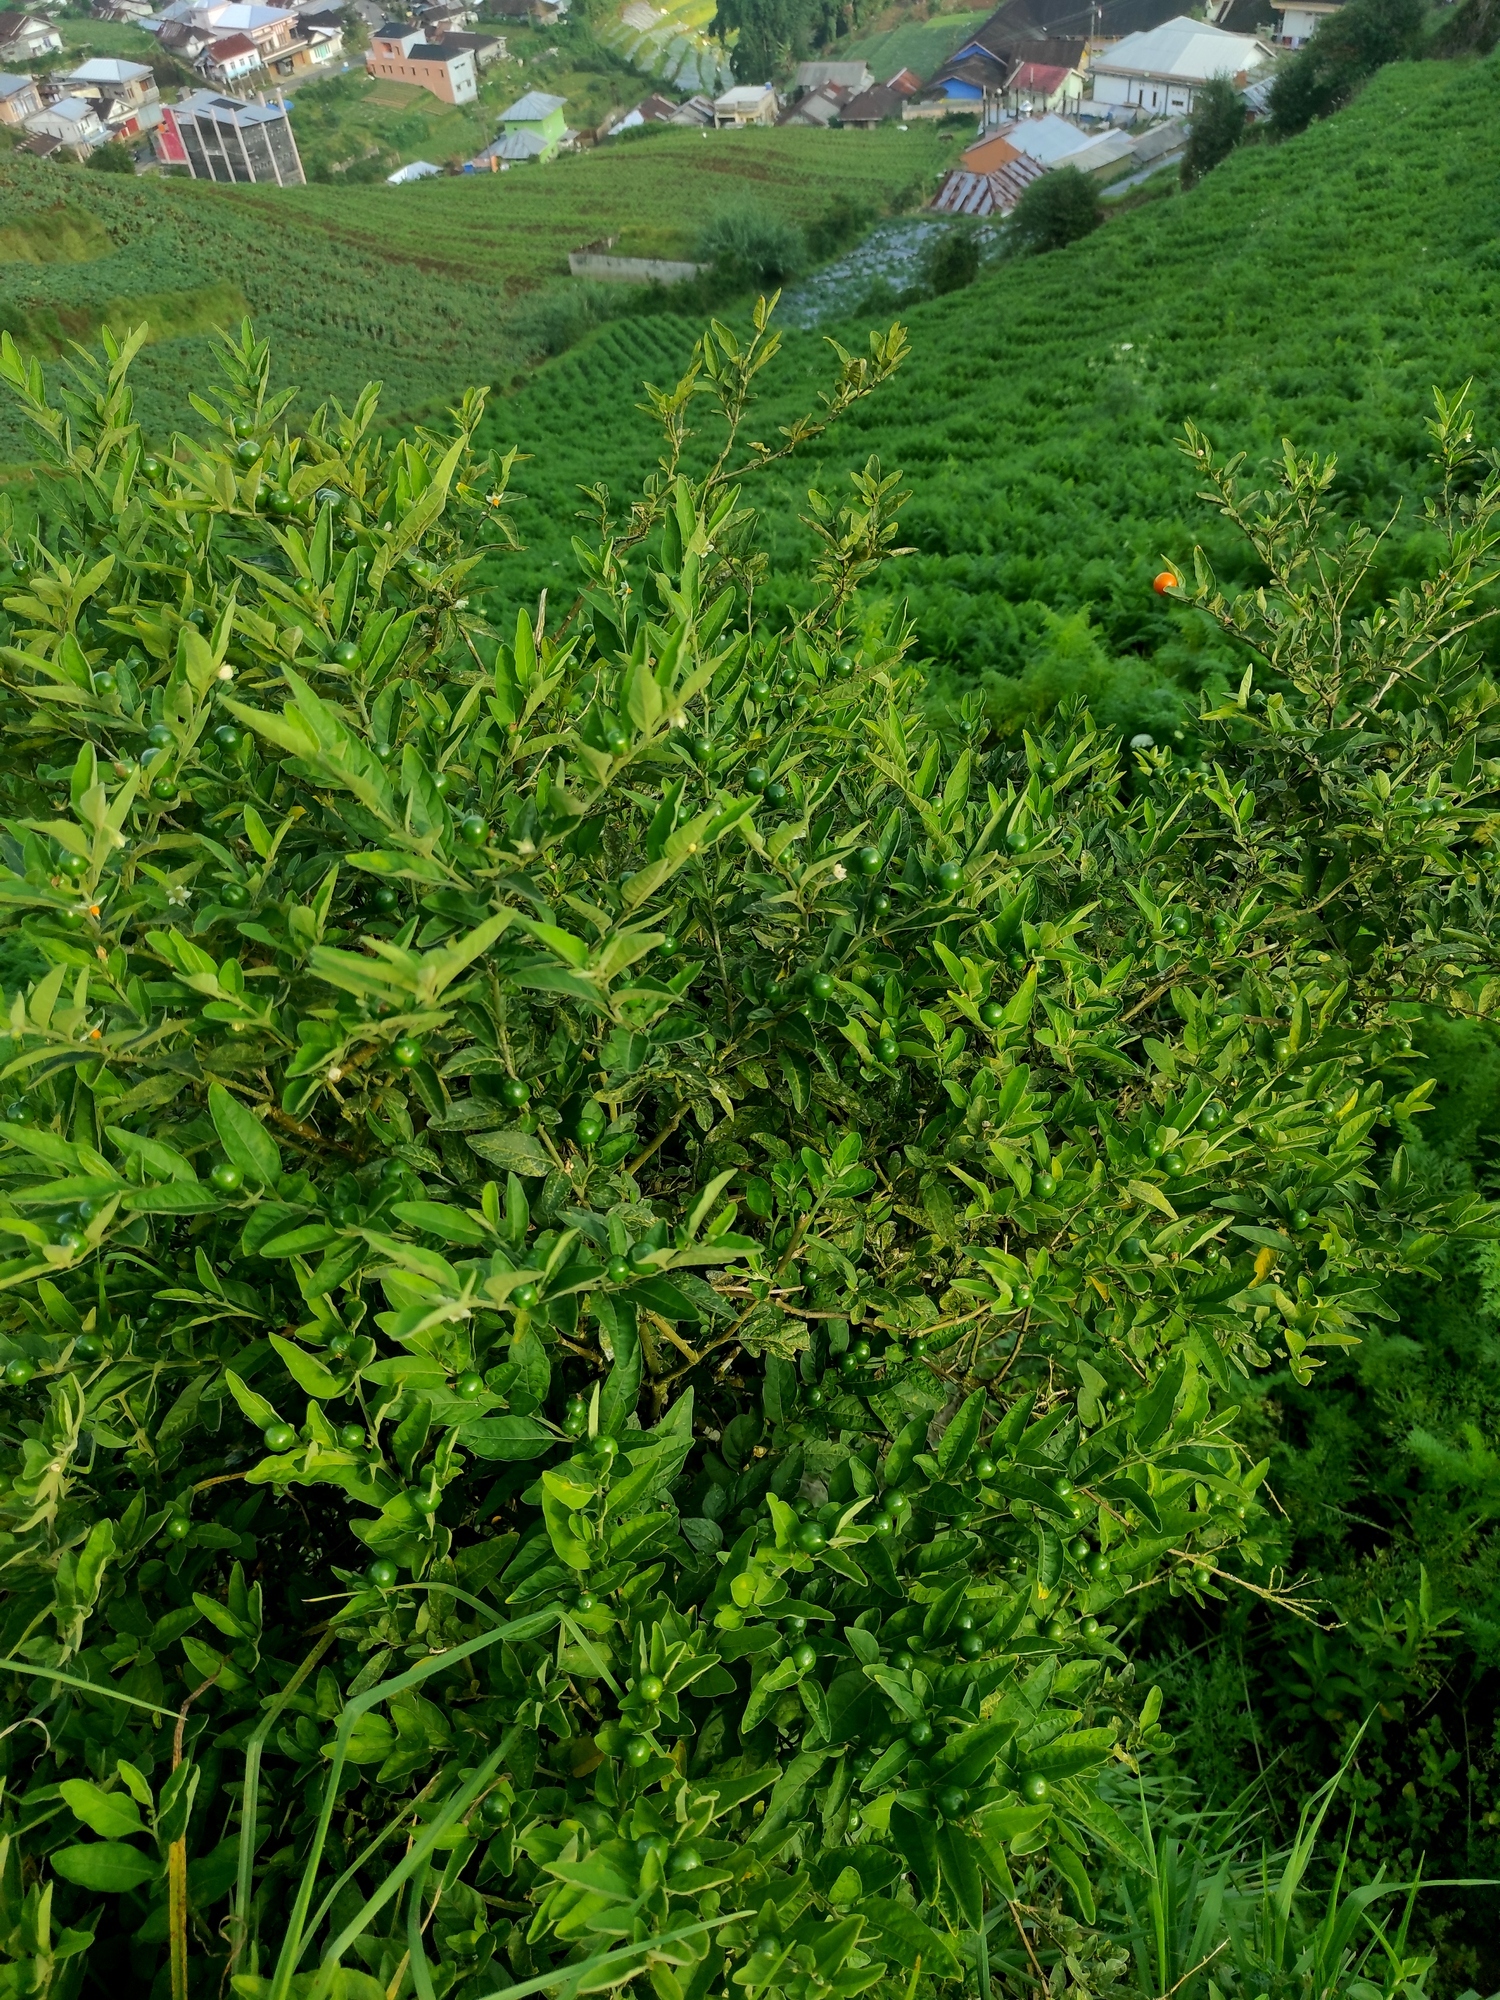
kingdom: Plantae
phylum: Tracheophyta
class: Magnoliopsida
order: Solanales
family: Solanaceae
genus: Solanum
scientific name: Solanum pseudocapsicum
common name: Jerusalem cherry
